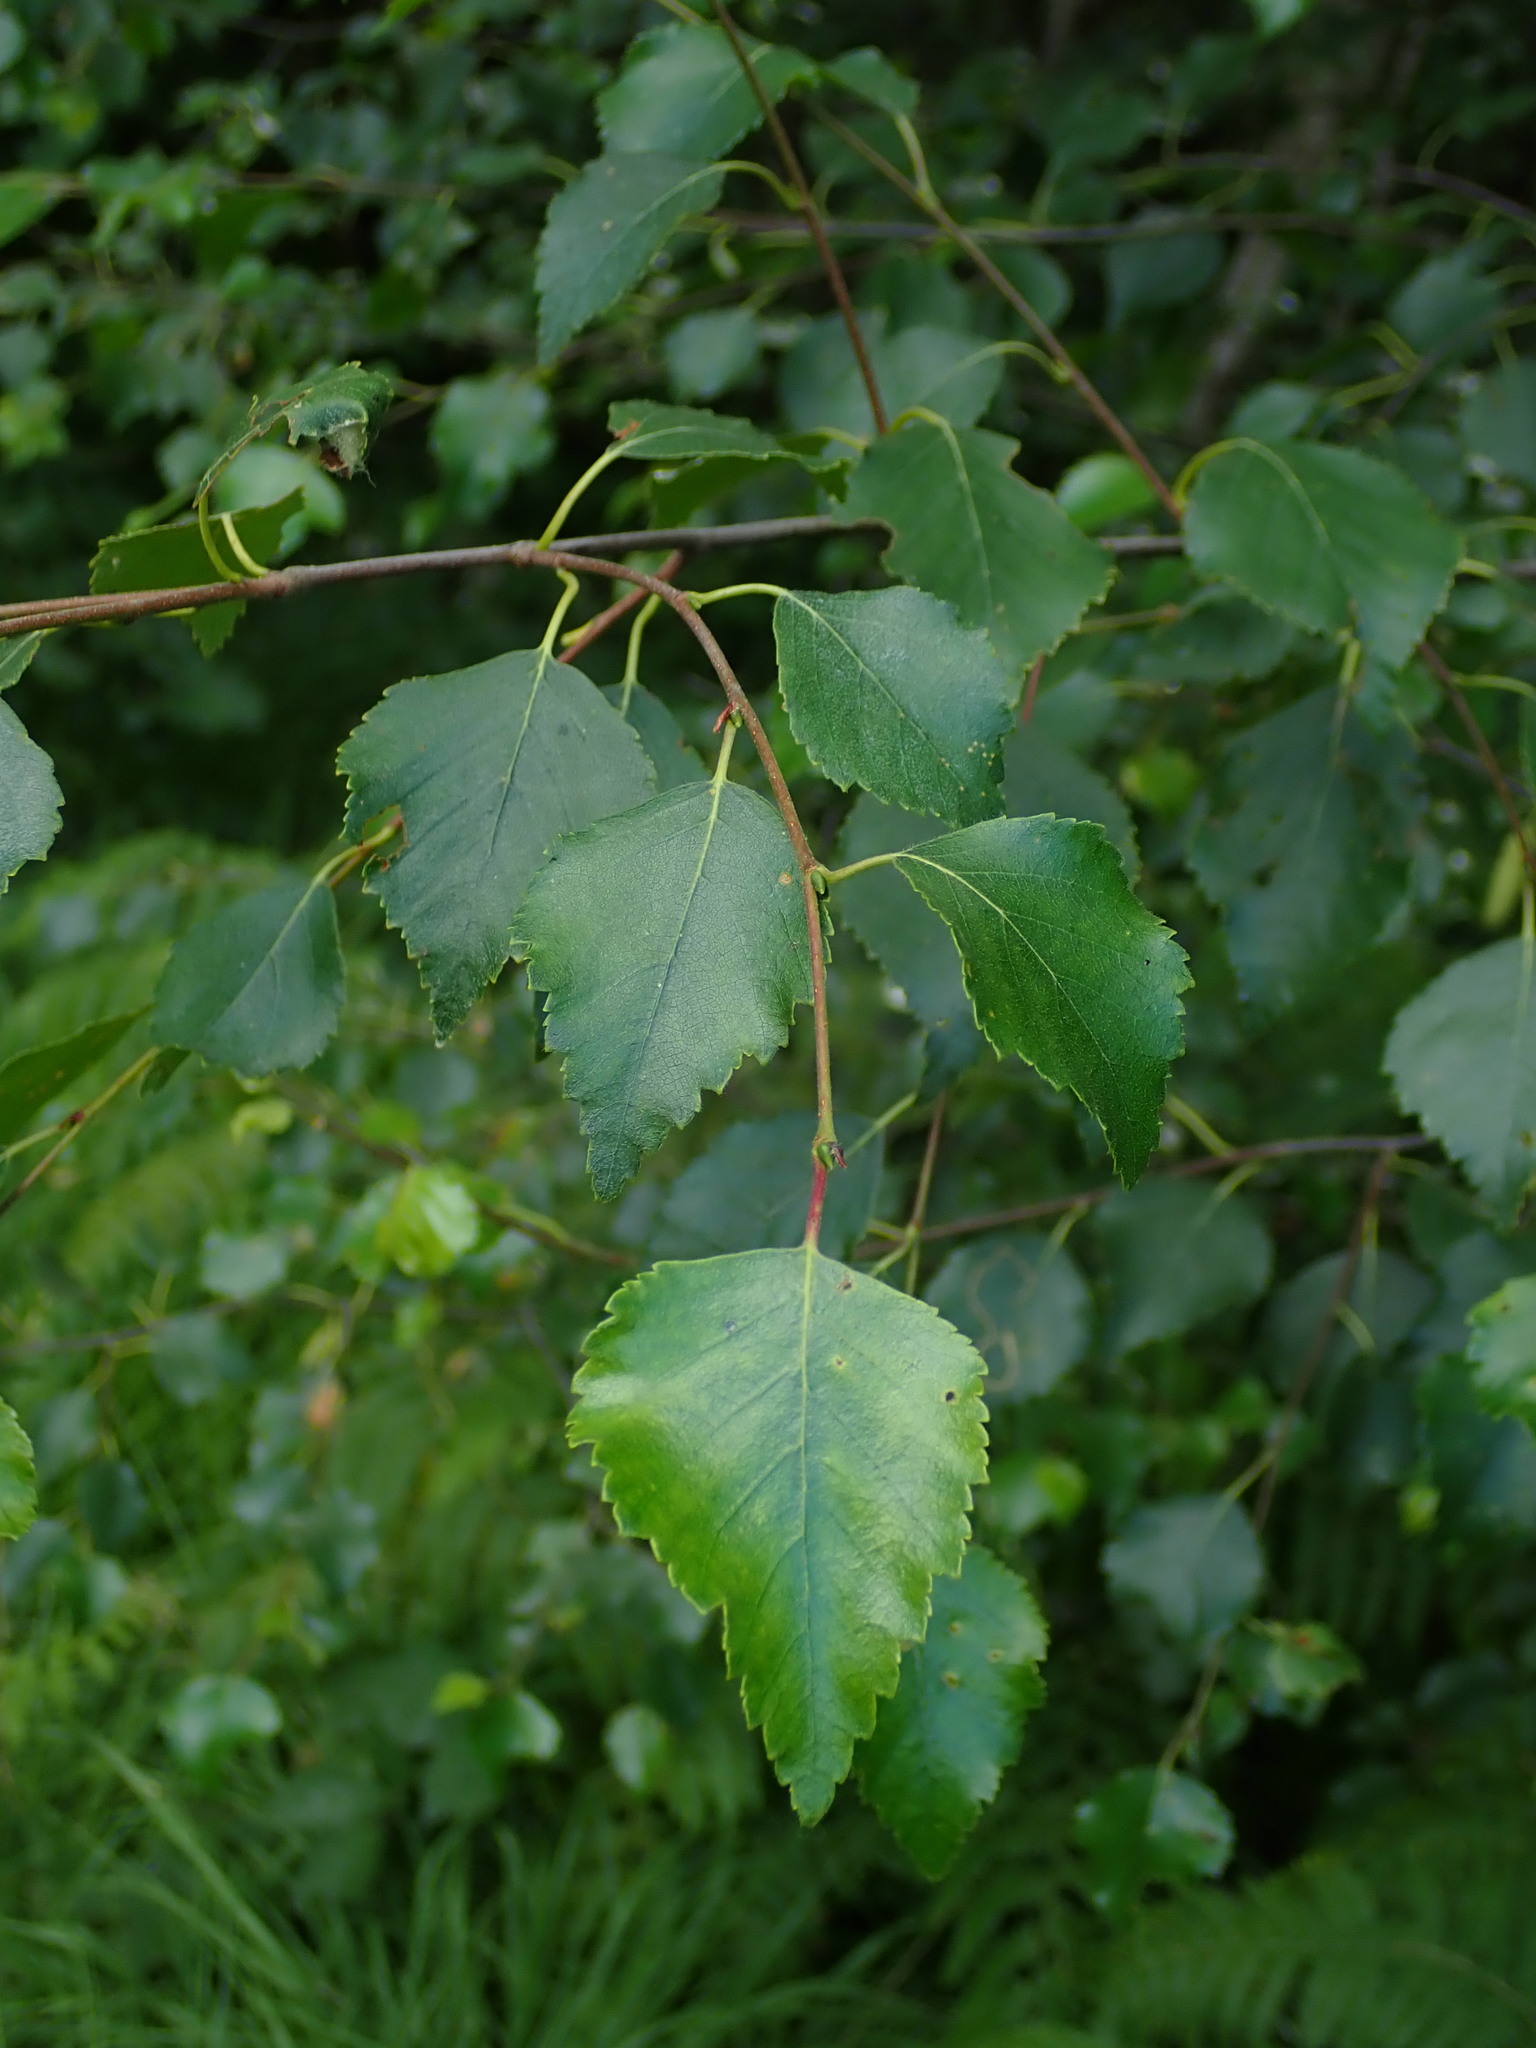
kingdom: Plantae
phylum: Tracheophyta
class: Magnoliopsida
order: Fagales
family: Betulaceae
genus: Betula
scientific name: Betula pendula
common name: Silver birch
